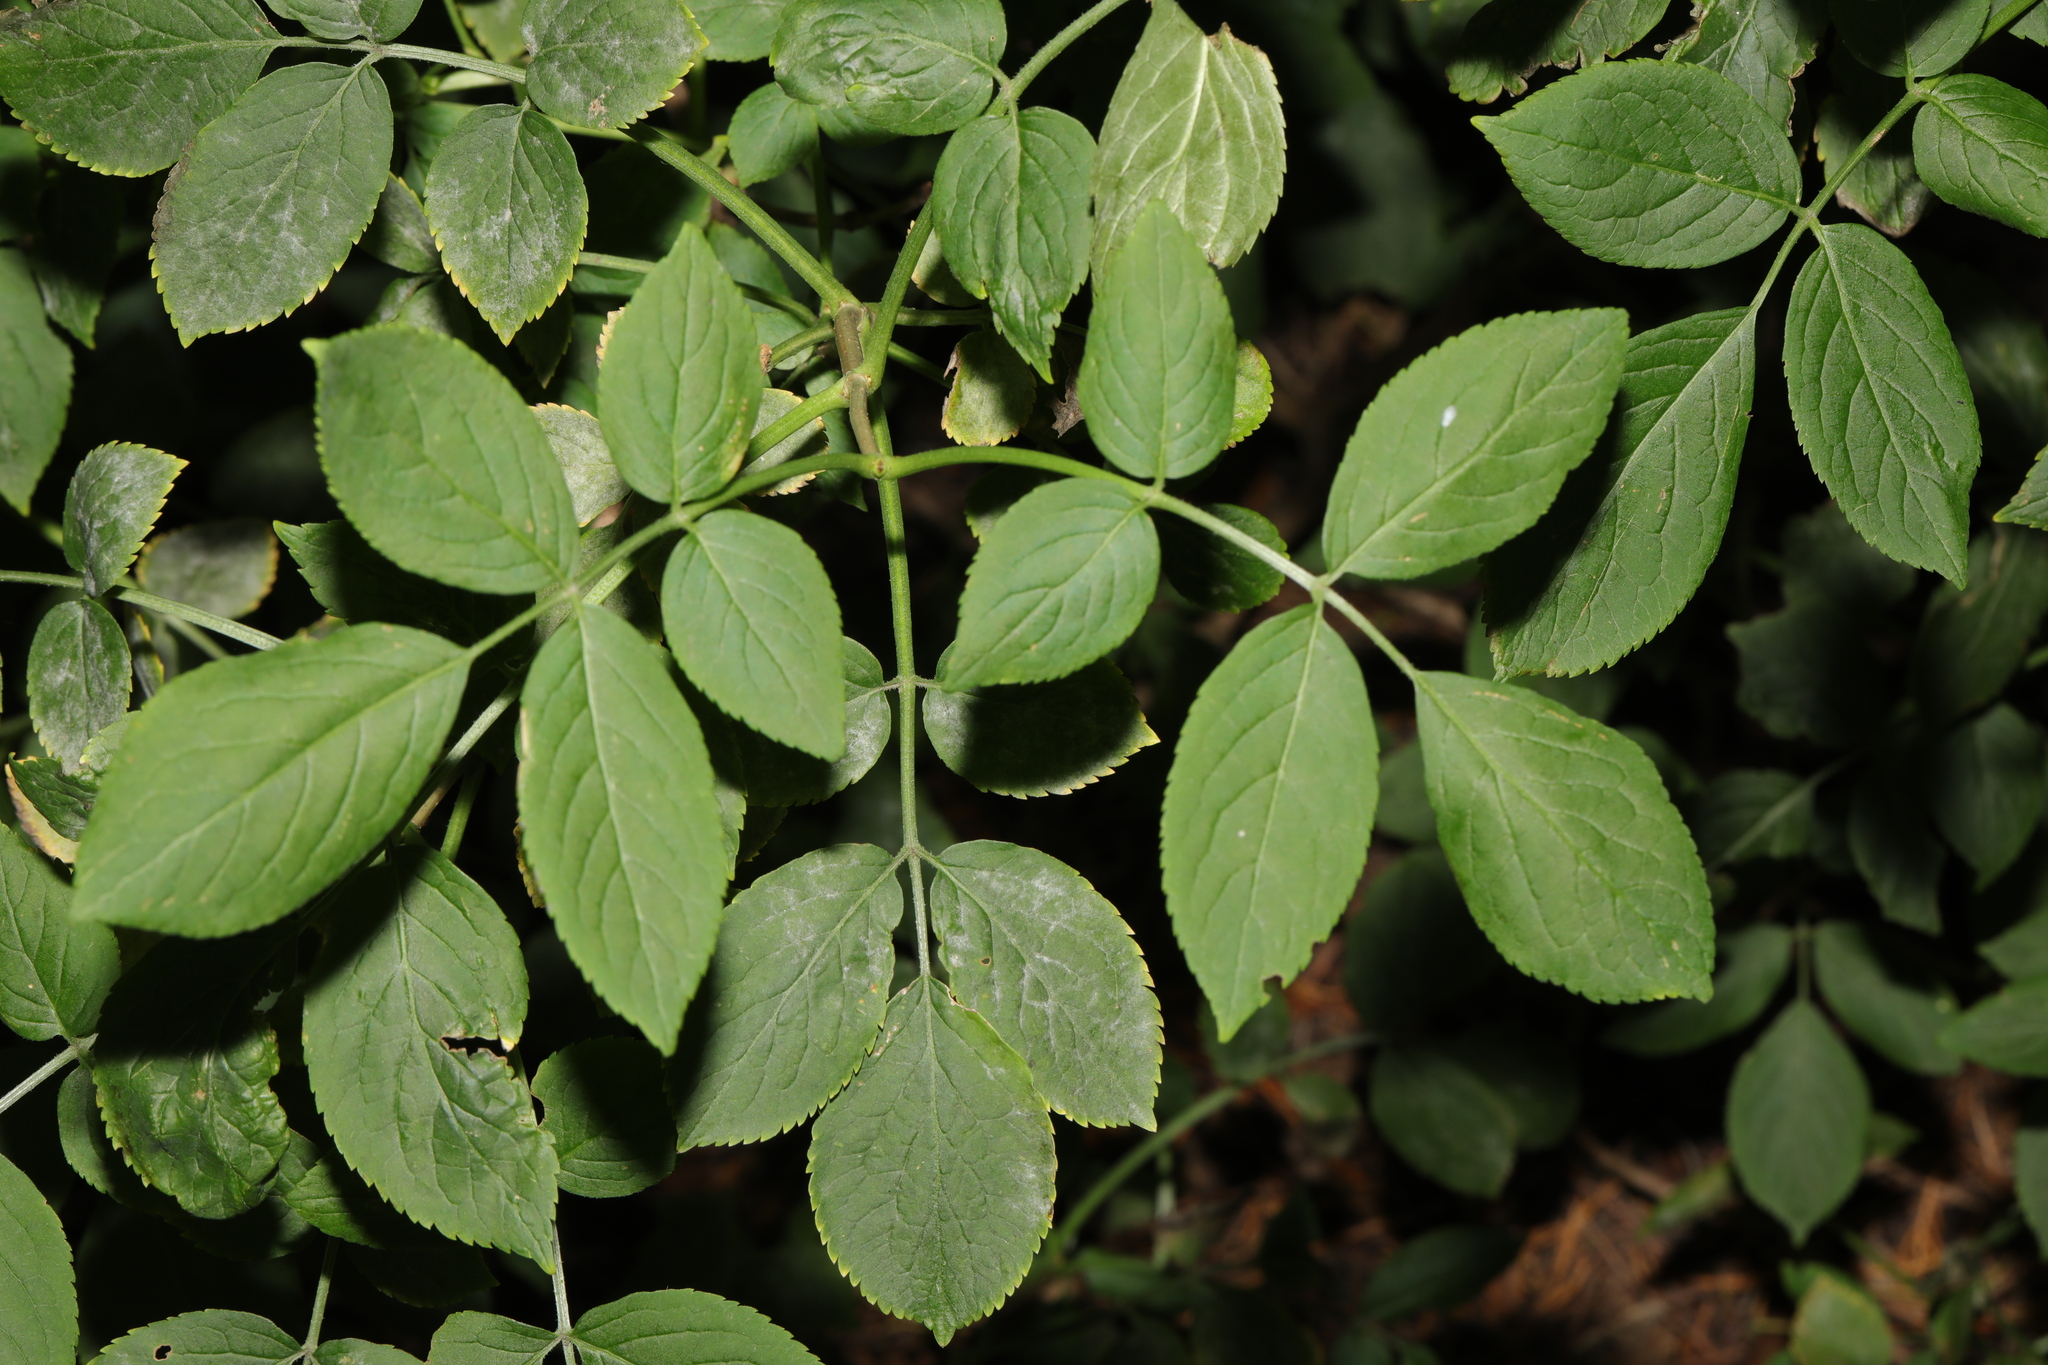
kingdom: Plantae
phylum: Tracheophyta
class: Magnoliopsida
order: Dipsacales
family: Viburnaceae
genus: Sambucus
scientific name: Sambucus nigra
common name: Elder
